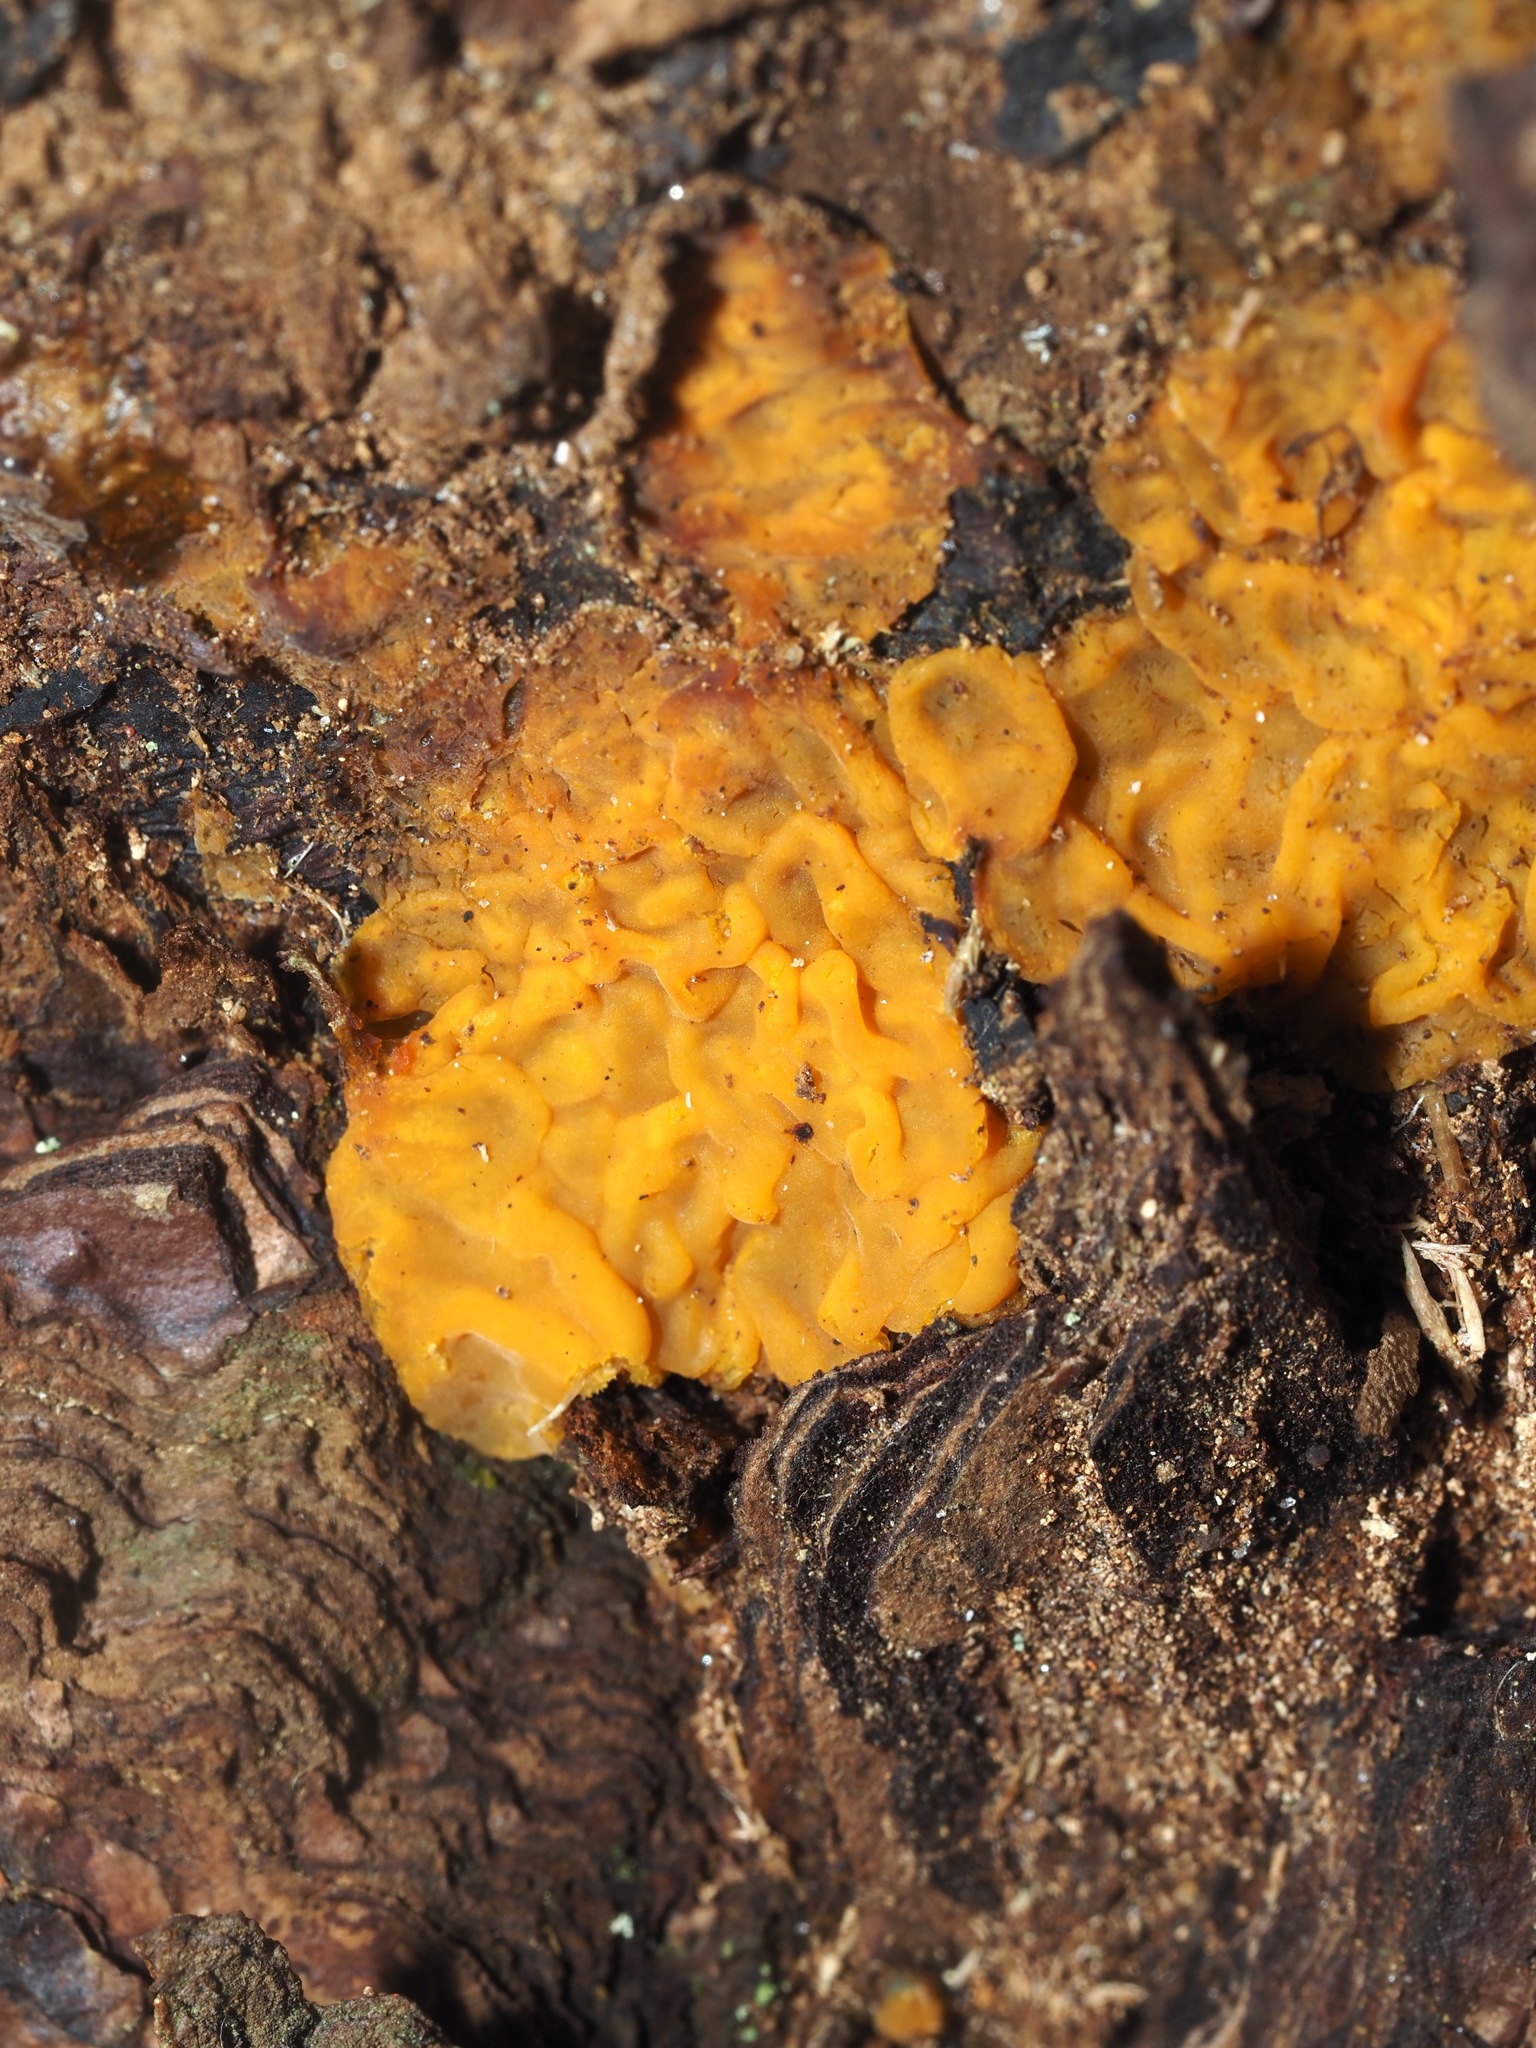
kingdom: Fungi
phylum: Basidiomycota
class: Dacrymycetes
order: Dacrymycetales
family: Dacrymycetaceae
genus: Dacrymyces
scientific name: Dacrymyces chrysospermus
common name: Orange jelly spot
